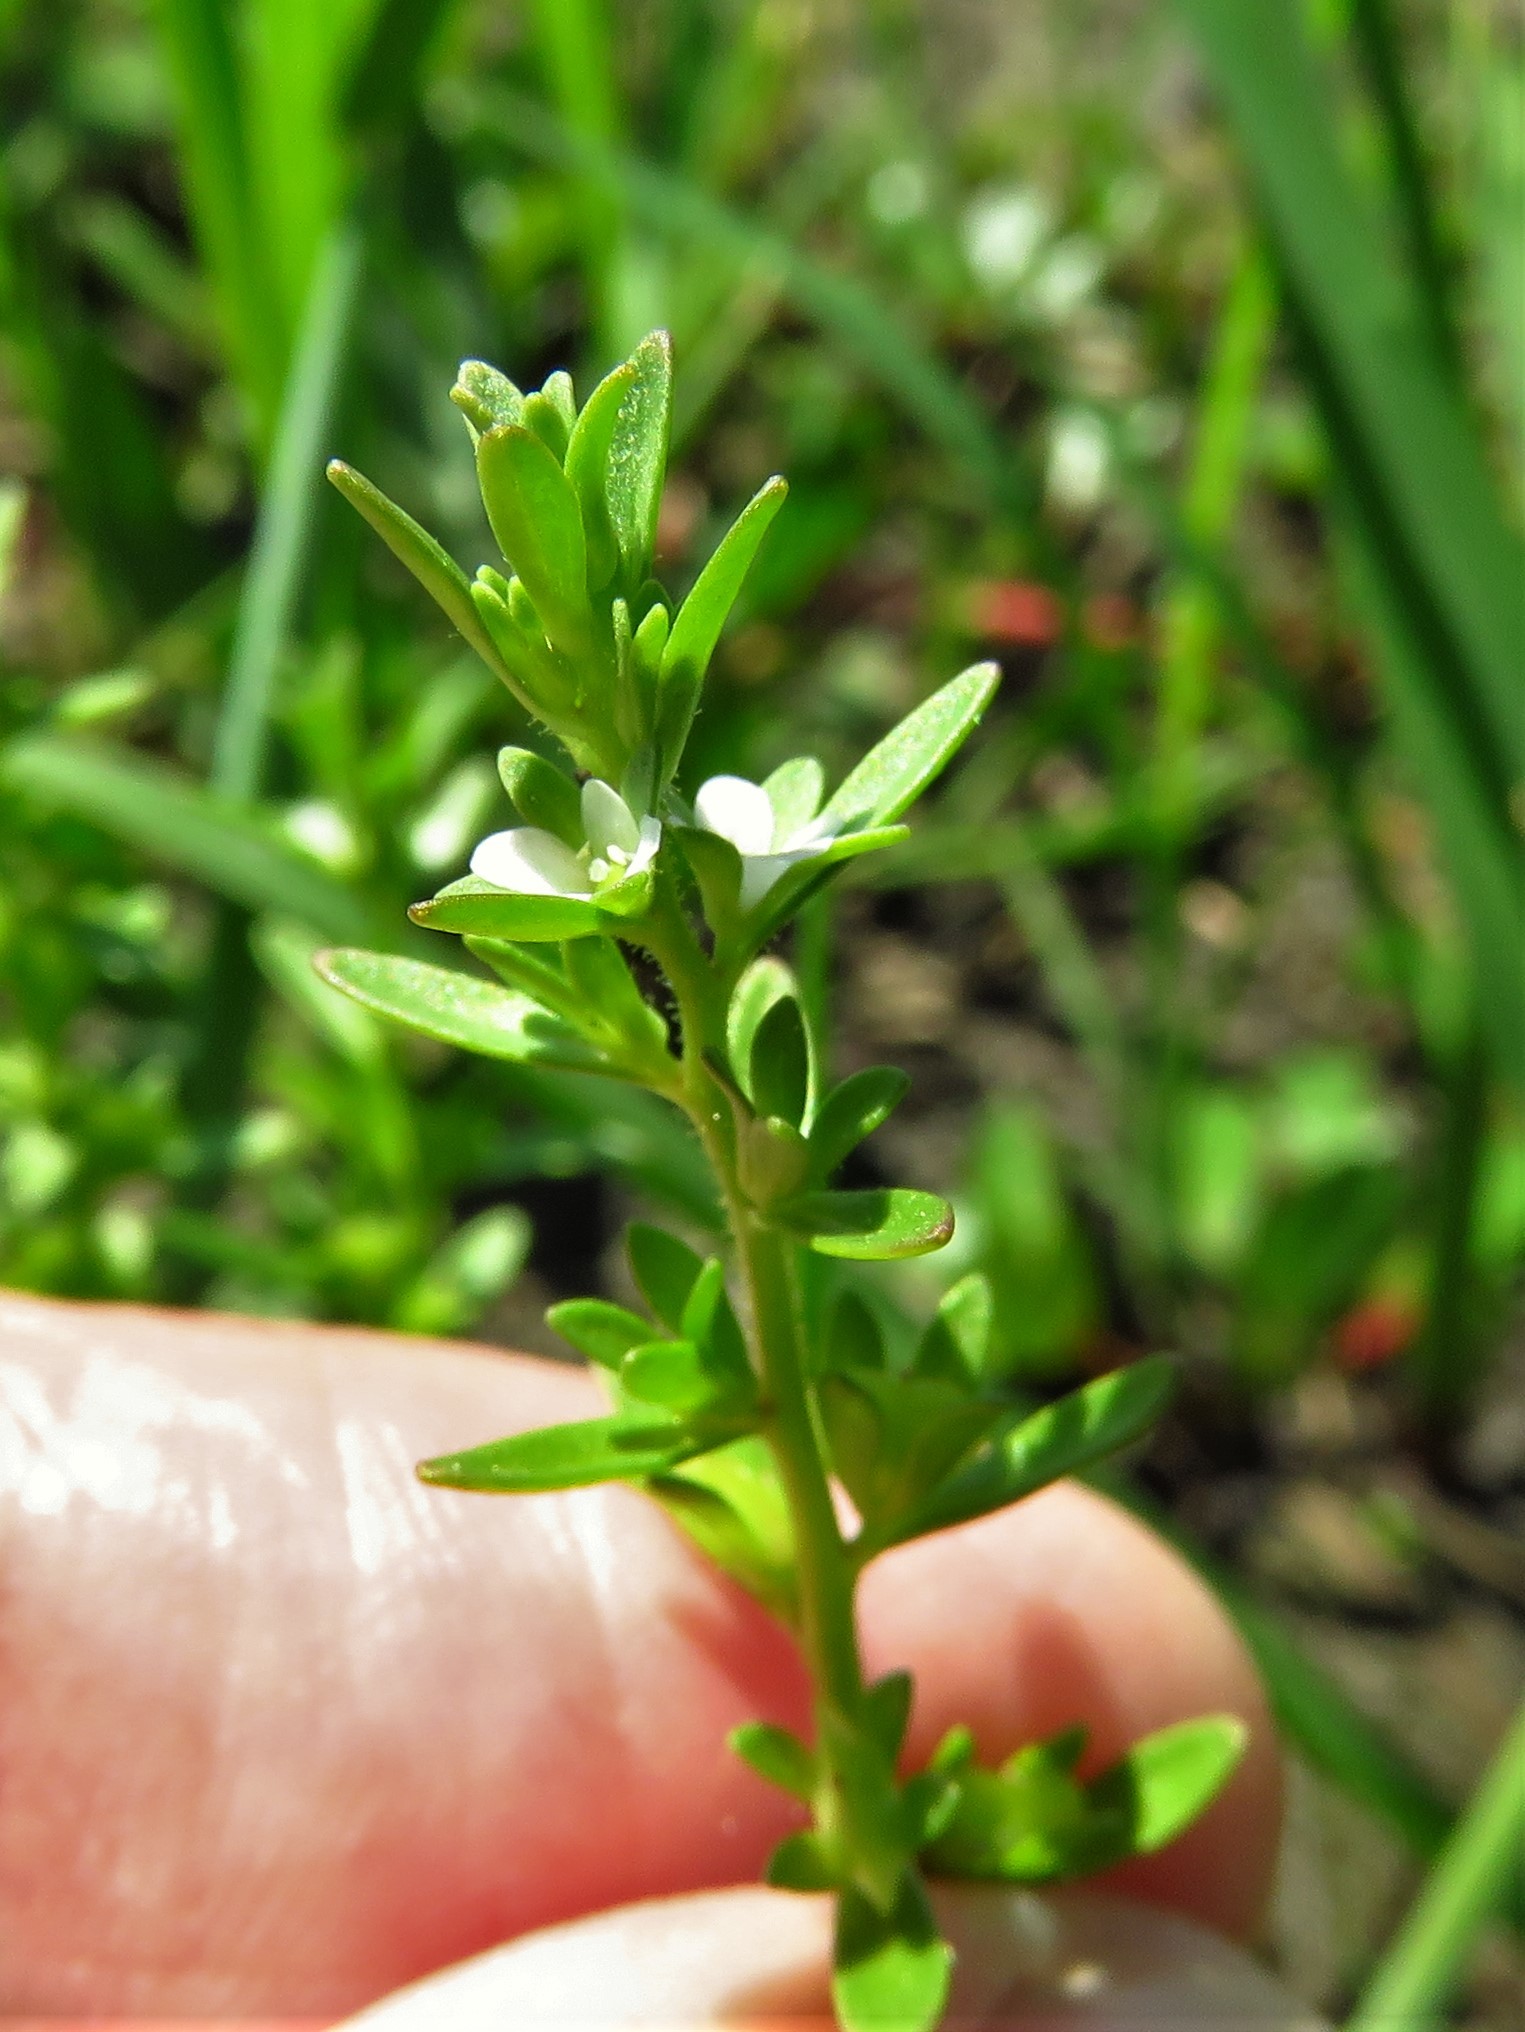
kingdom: Plantae
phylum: Tracheophyta
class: Magnoliopsida
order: Lamiales
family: Plantaginaceae
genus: Veronica
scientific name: Veronica peregrina
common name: Neckweed
